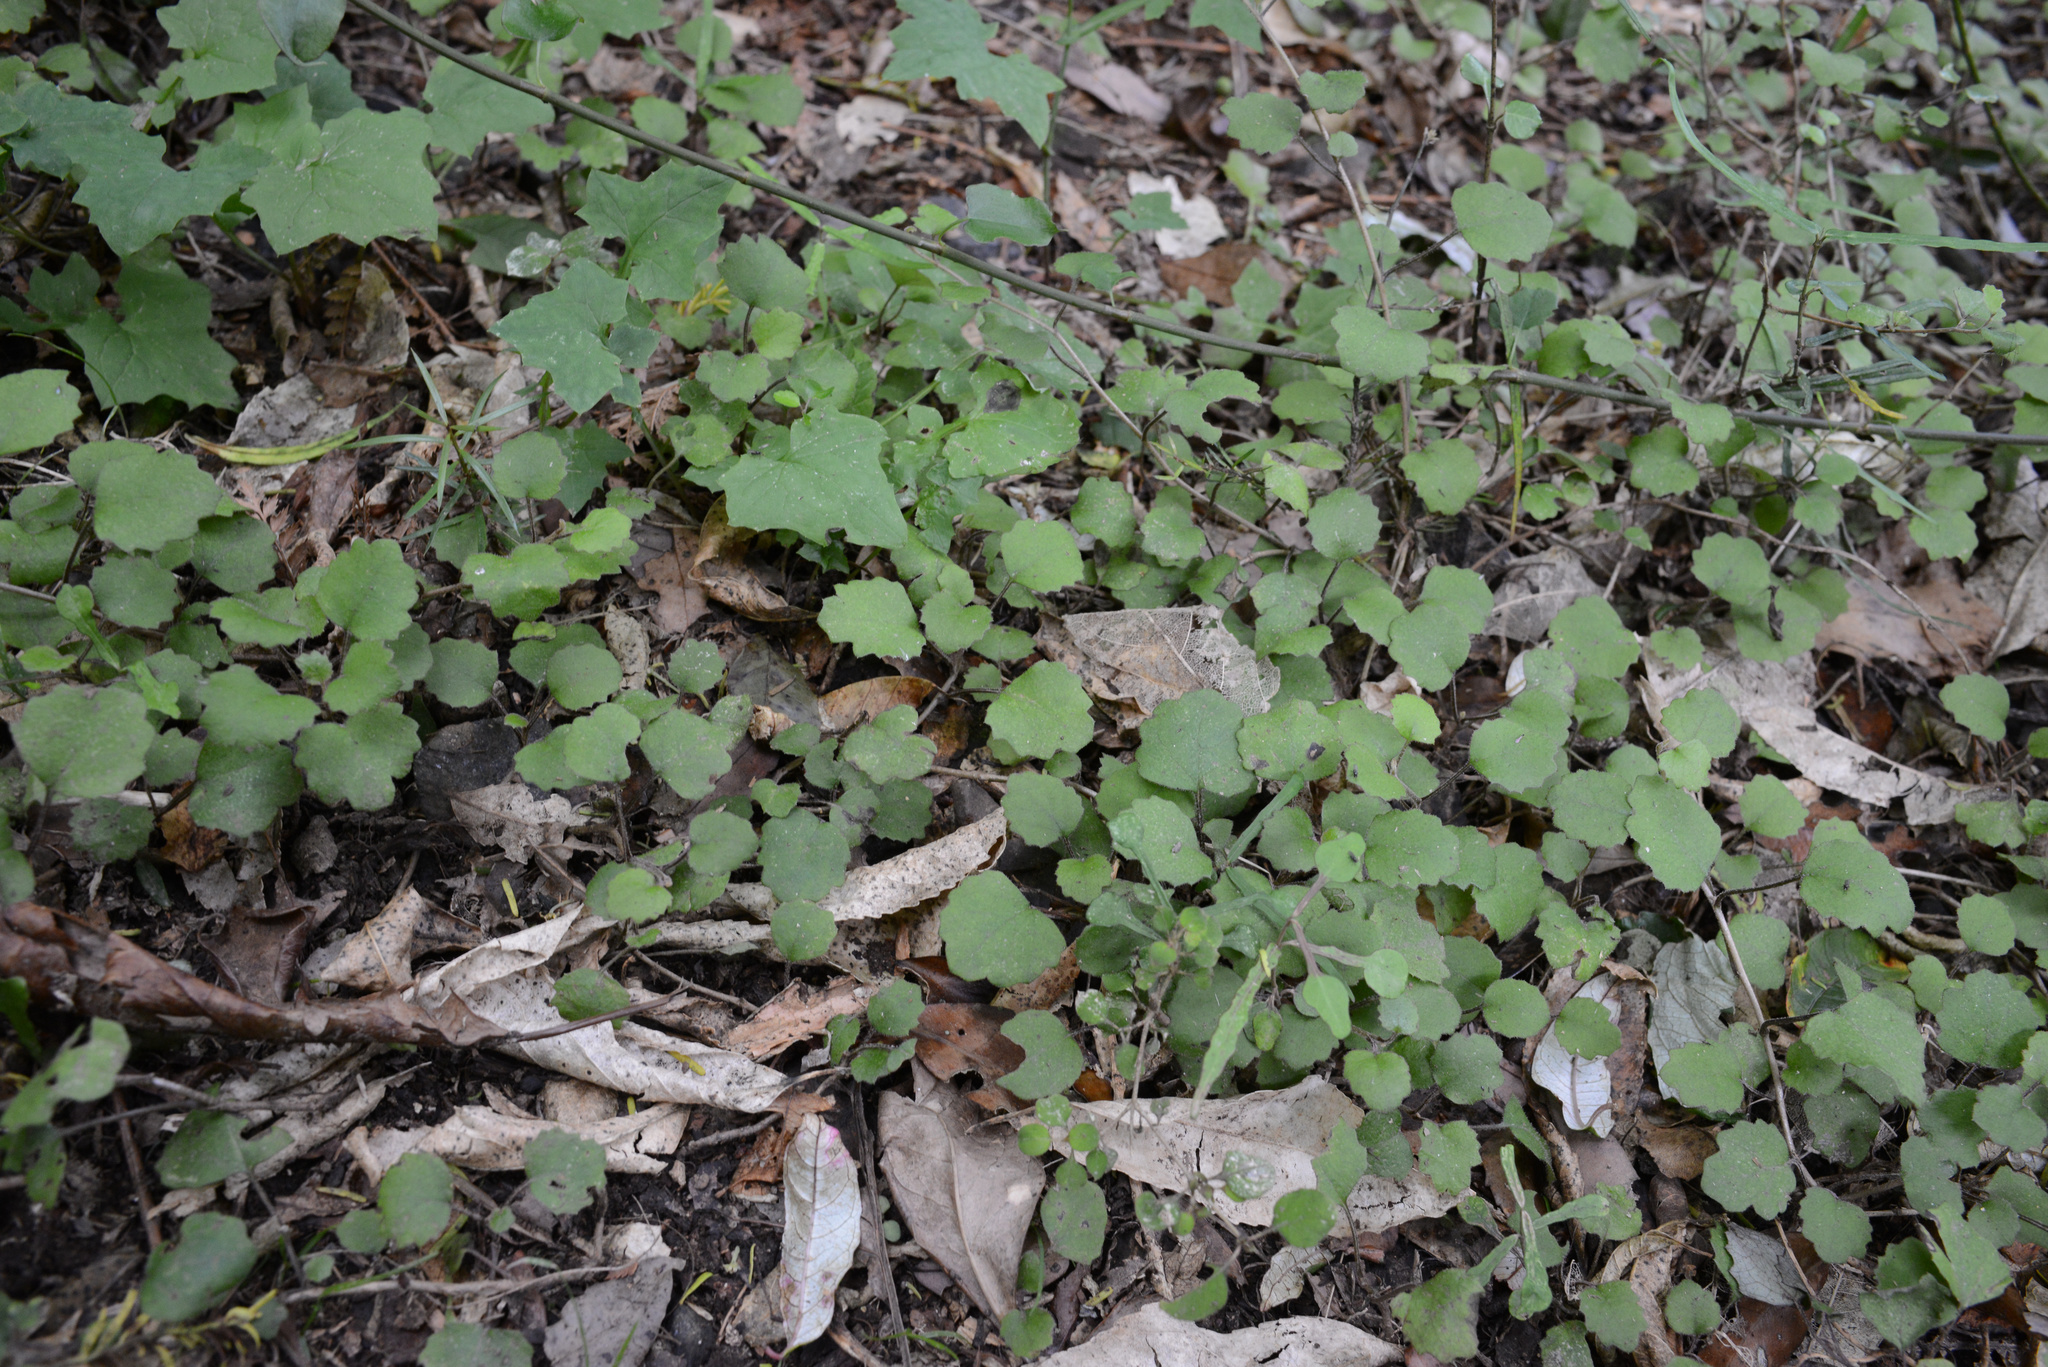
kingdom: Plantae
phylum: Tracheophyta
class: Magnoliopsida
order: Asterales
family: Asteraceae
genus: Brachyglottis
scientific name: Brachyglottis sciadophila
